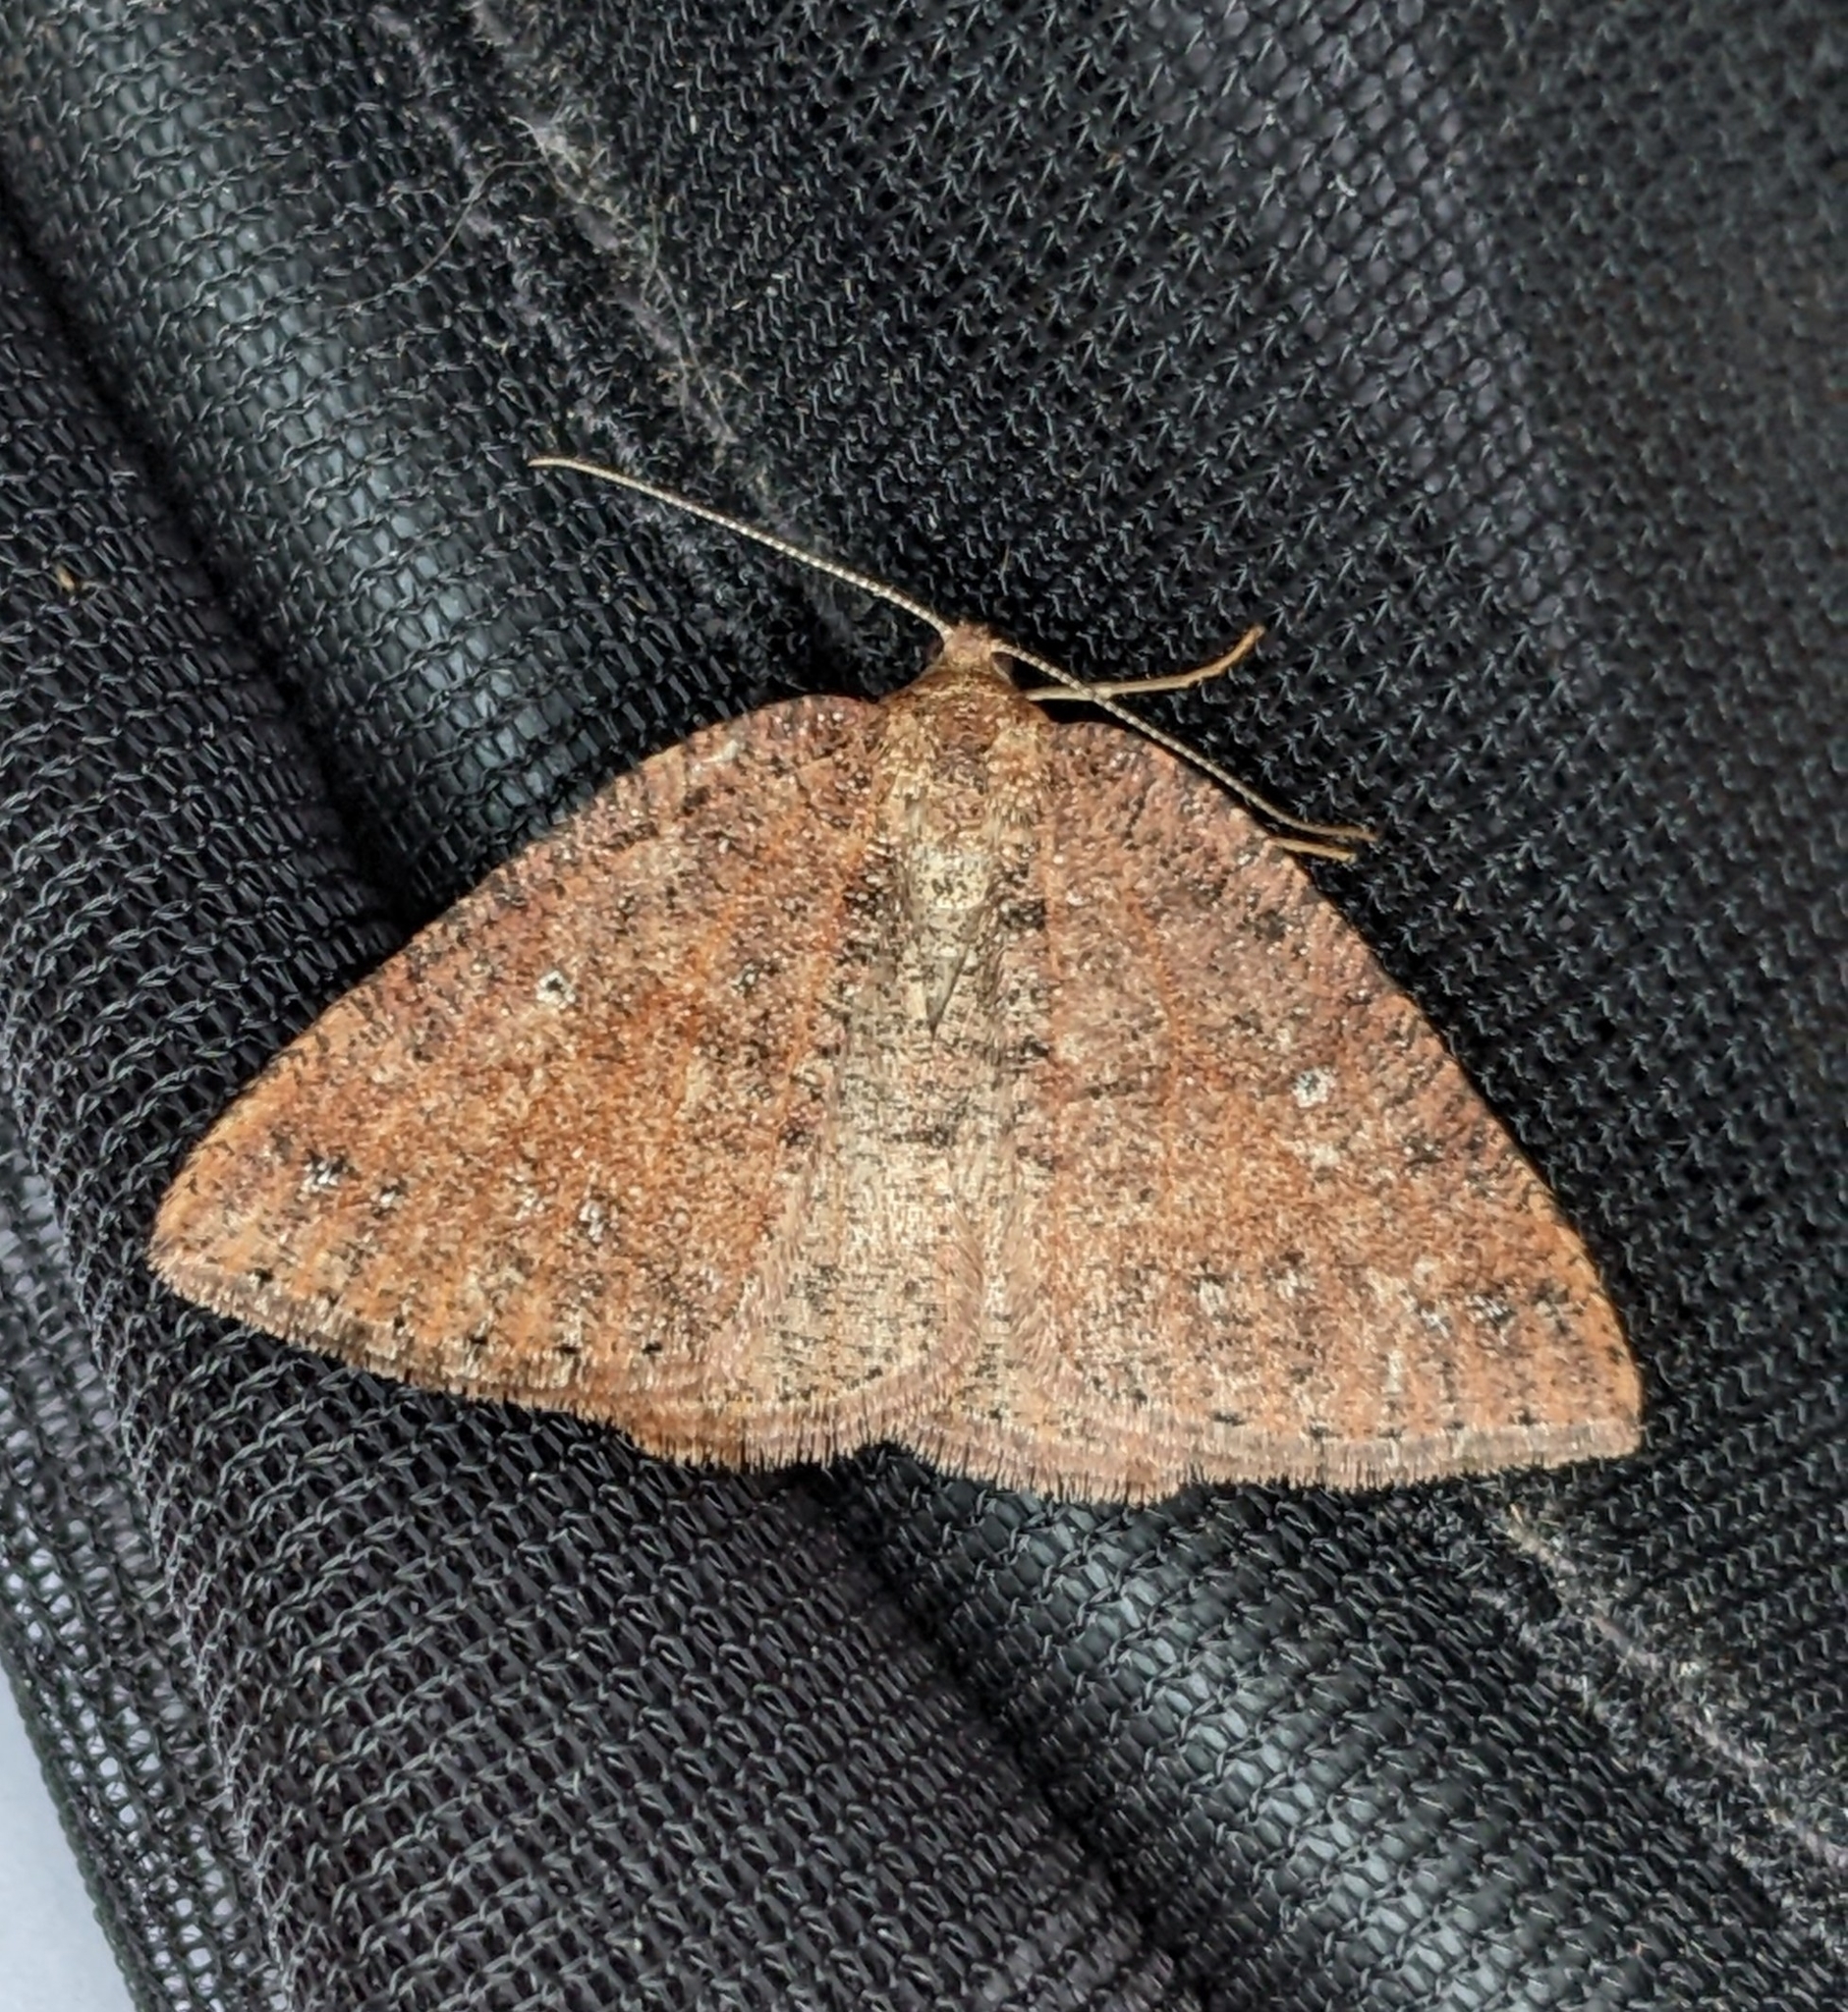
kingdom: Animalia
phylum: Arthropoda
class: Insecta
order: Lepidoptera
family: Geometridae
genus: Drepanulatrix
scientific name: Drepanulatrix faeminaria
